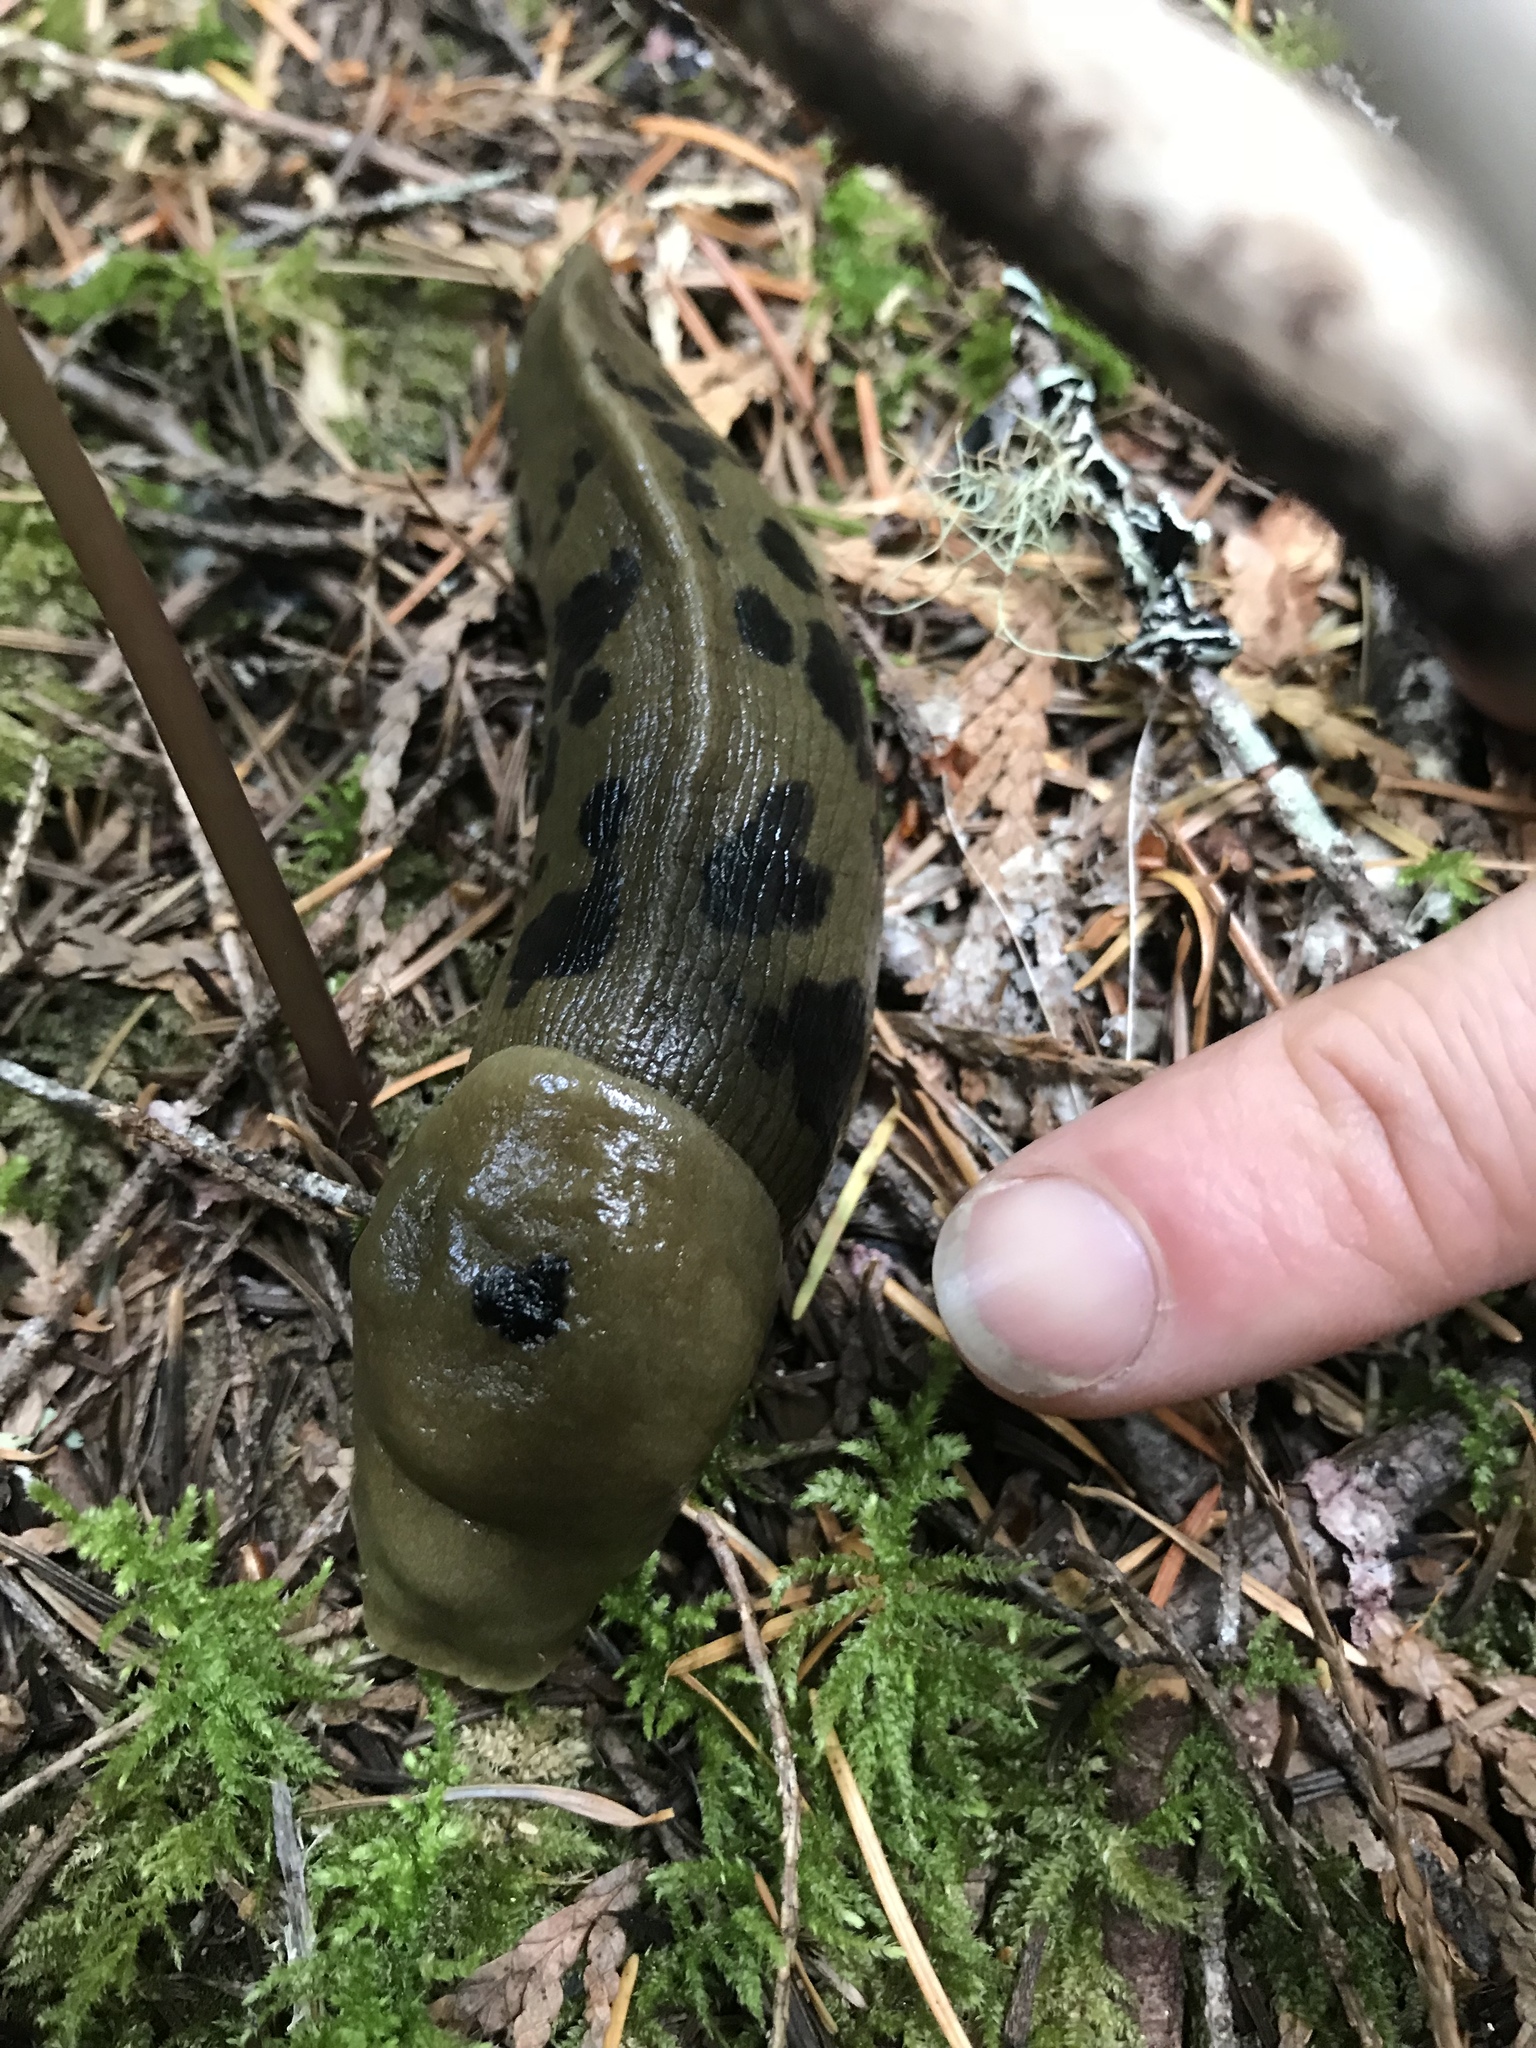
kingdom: Animalia
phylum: Mollusca
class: Gastropoda
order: Stylommatophora
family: Ariolimacidae
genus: Ariolimax
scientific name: Ariolimax columbianus
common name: Pacific banana slug
